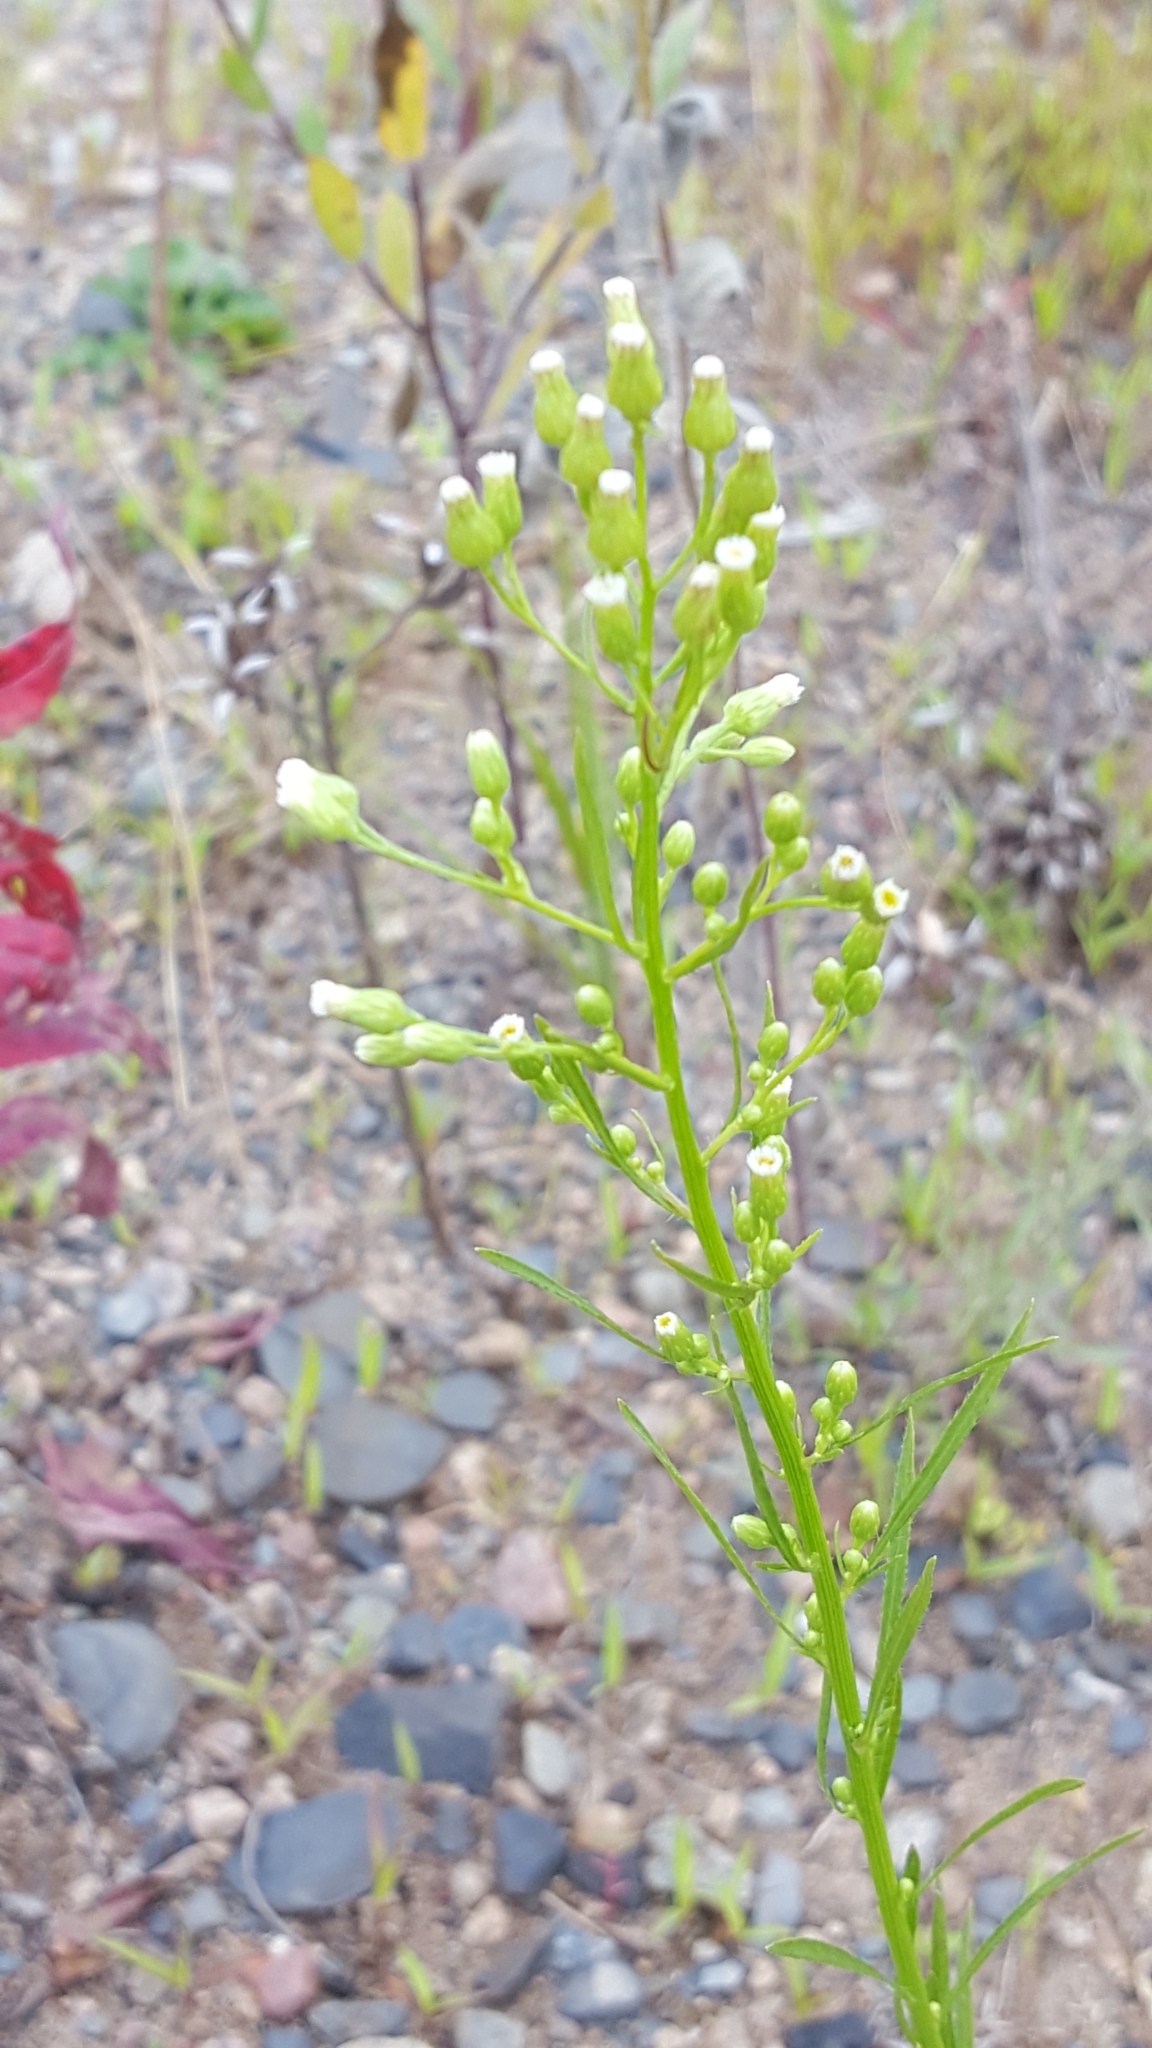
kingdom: Plantae
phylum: Tracheophyta
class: Magnoliopsida
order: Asterales
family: Asteraceae
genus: Erigeron
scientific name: Erigeron canadensis
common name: Canadian fleabane
